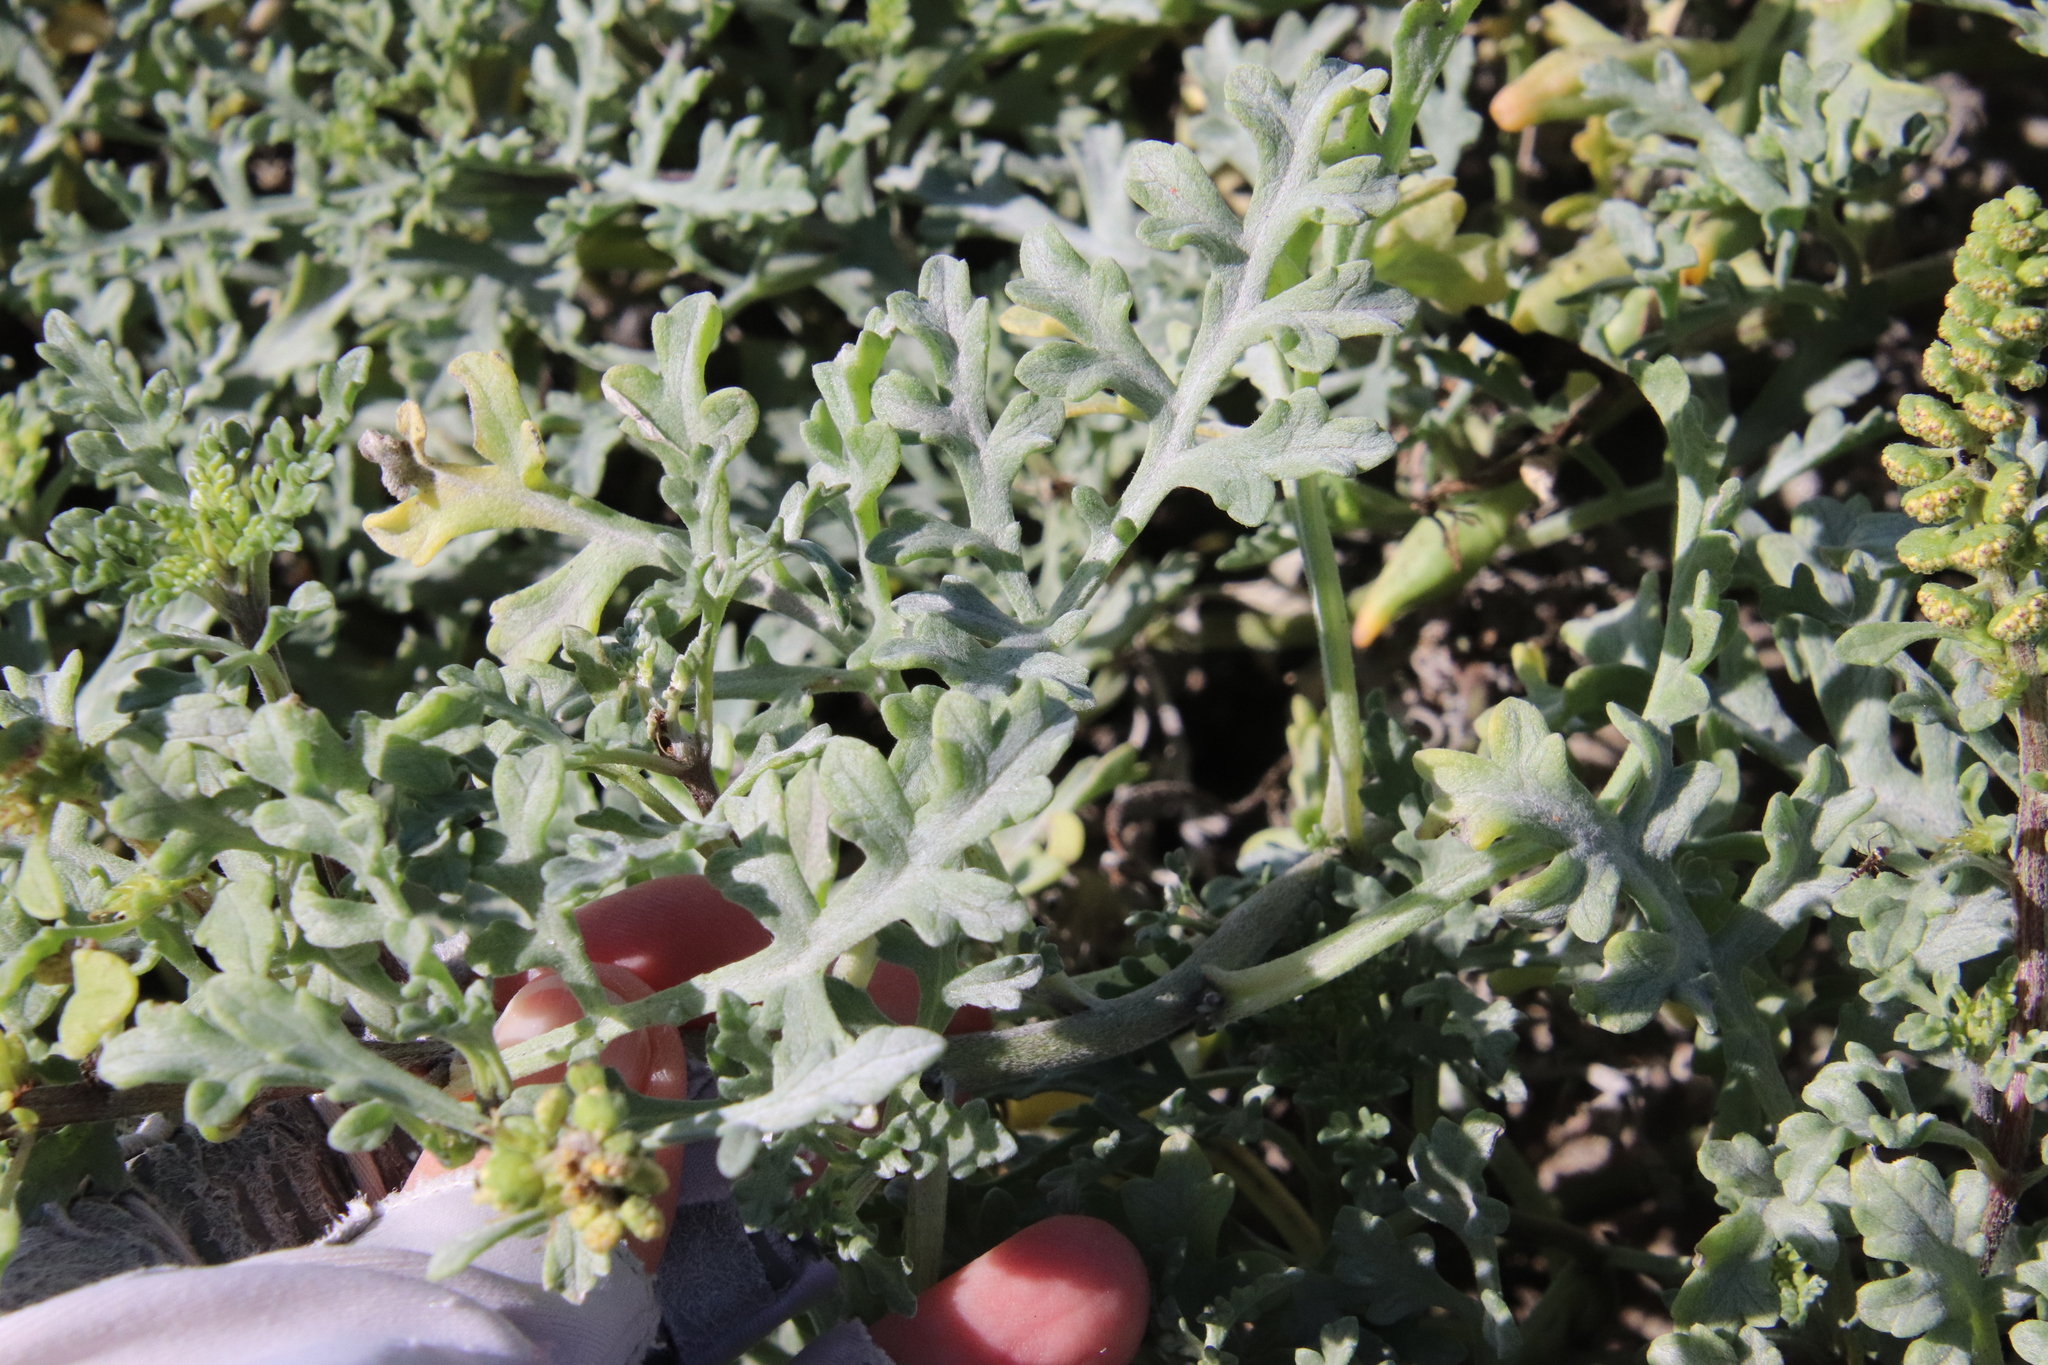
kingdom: Plantae
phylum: Tracheophyta
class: Magnoliopsida
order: Asterales
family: Asteraceae
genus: Ambrosia
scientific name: Ambrosia chamissonis
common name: Beachbur
